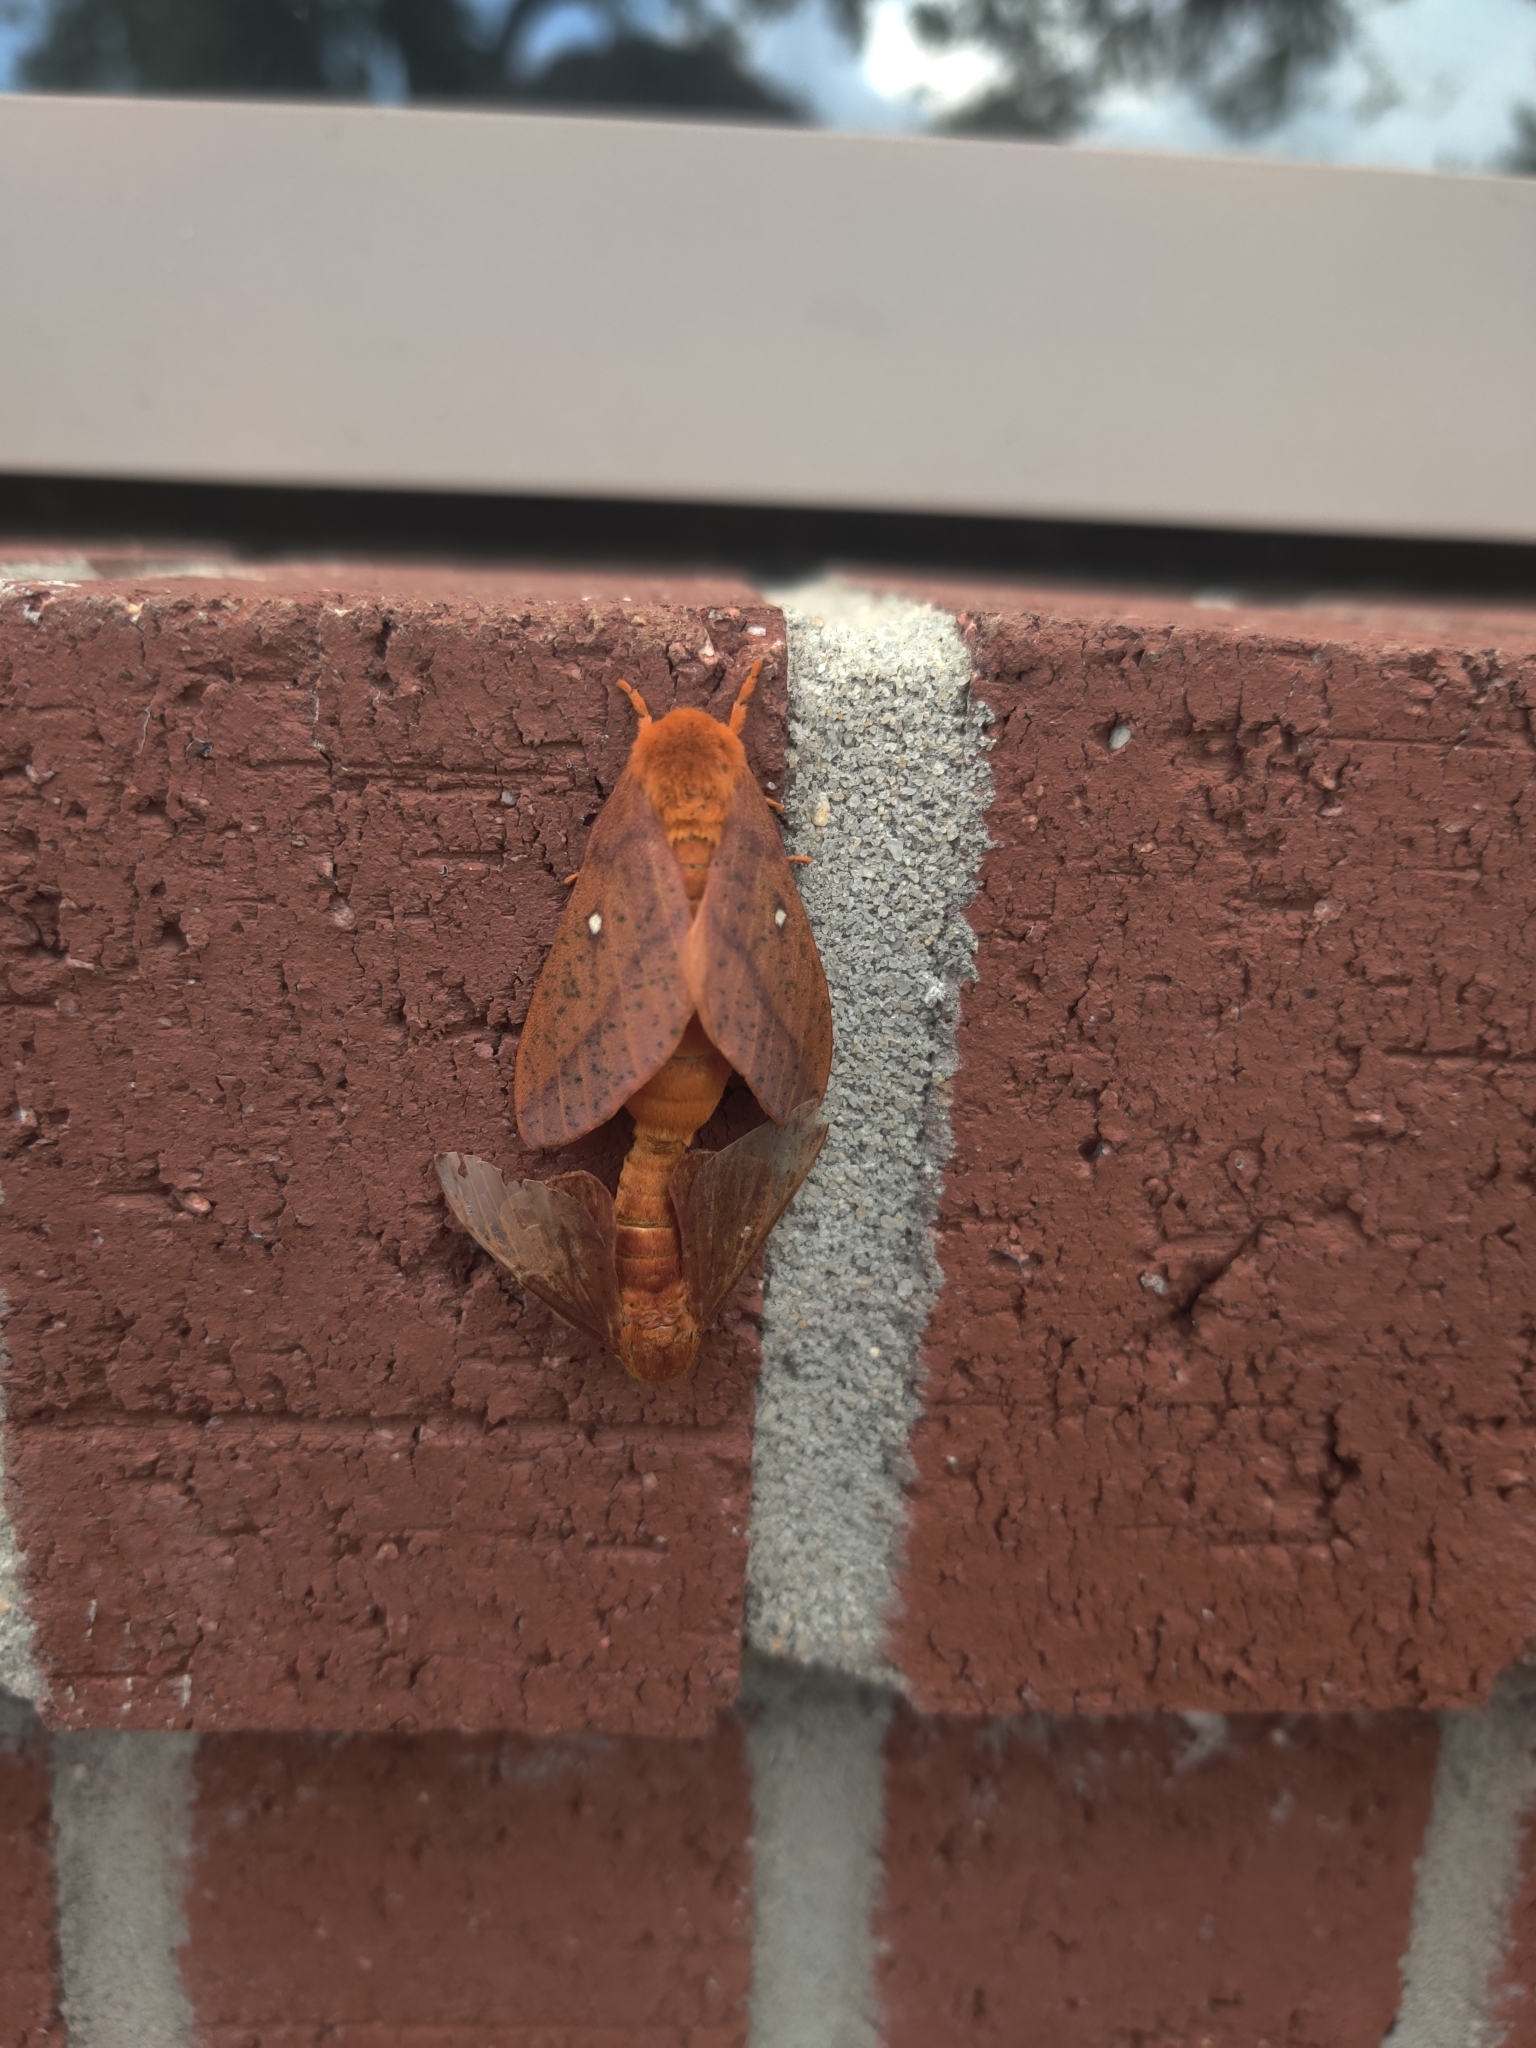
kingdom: Animalia
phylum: Arthropoda
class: Insecta
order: Lepidoptera
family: Saturniidae
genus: Anisota
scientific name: Anisota stigma
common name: Spiny oakworm moth
